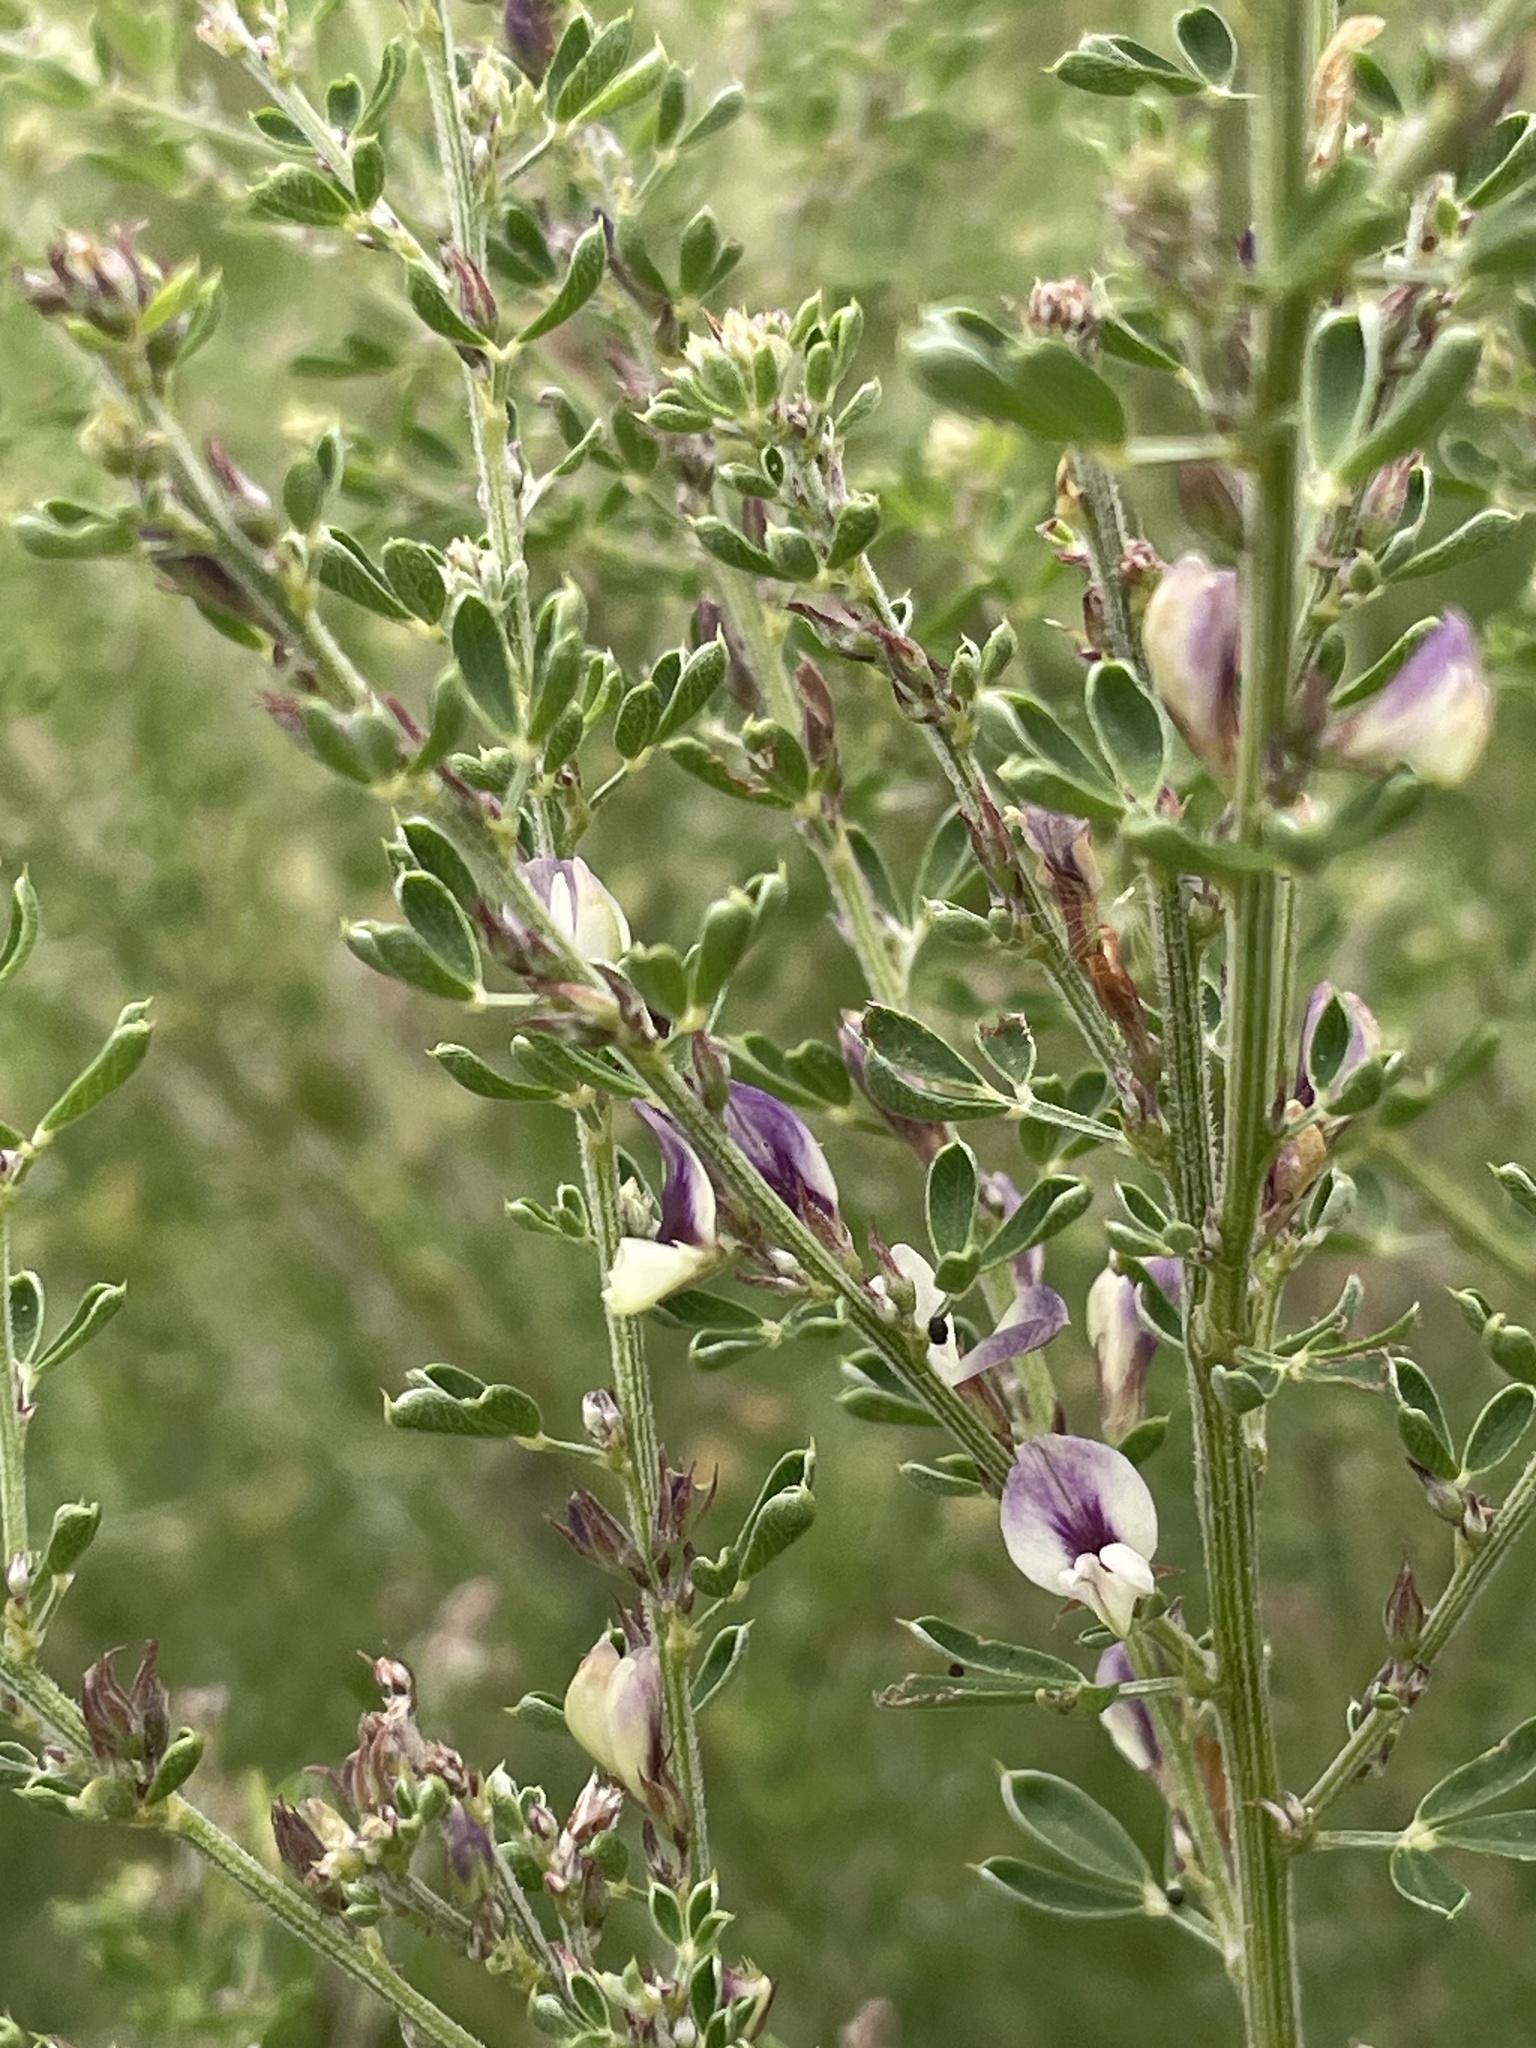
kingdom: Plantae
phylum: Tracheophyta
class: Magnoliopsida
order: Fabales
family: Fabaceae
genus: Lespedeza
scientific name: Lespedeza cuneata
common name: Chinese bush-clover
